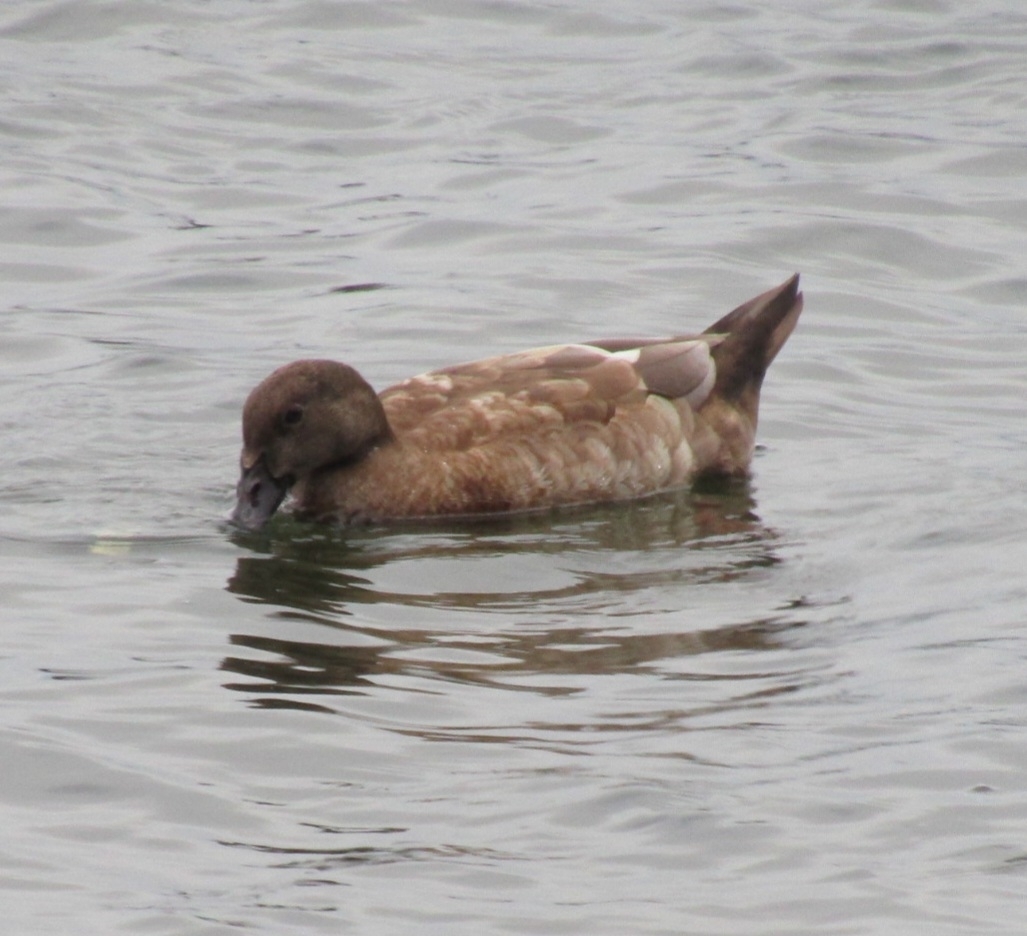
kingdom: Animalia
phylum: Chordata
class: Aves
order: Anseriformes
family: Anatidae
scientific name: Anatidae
